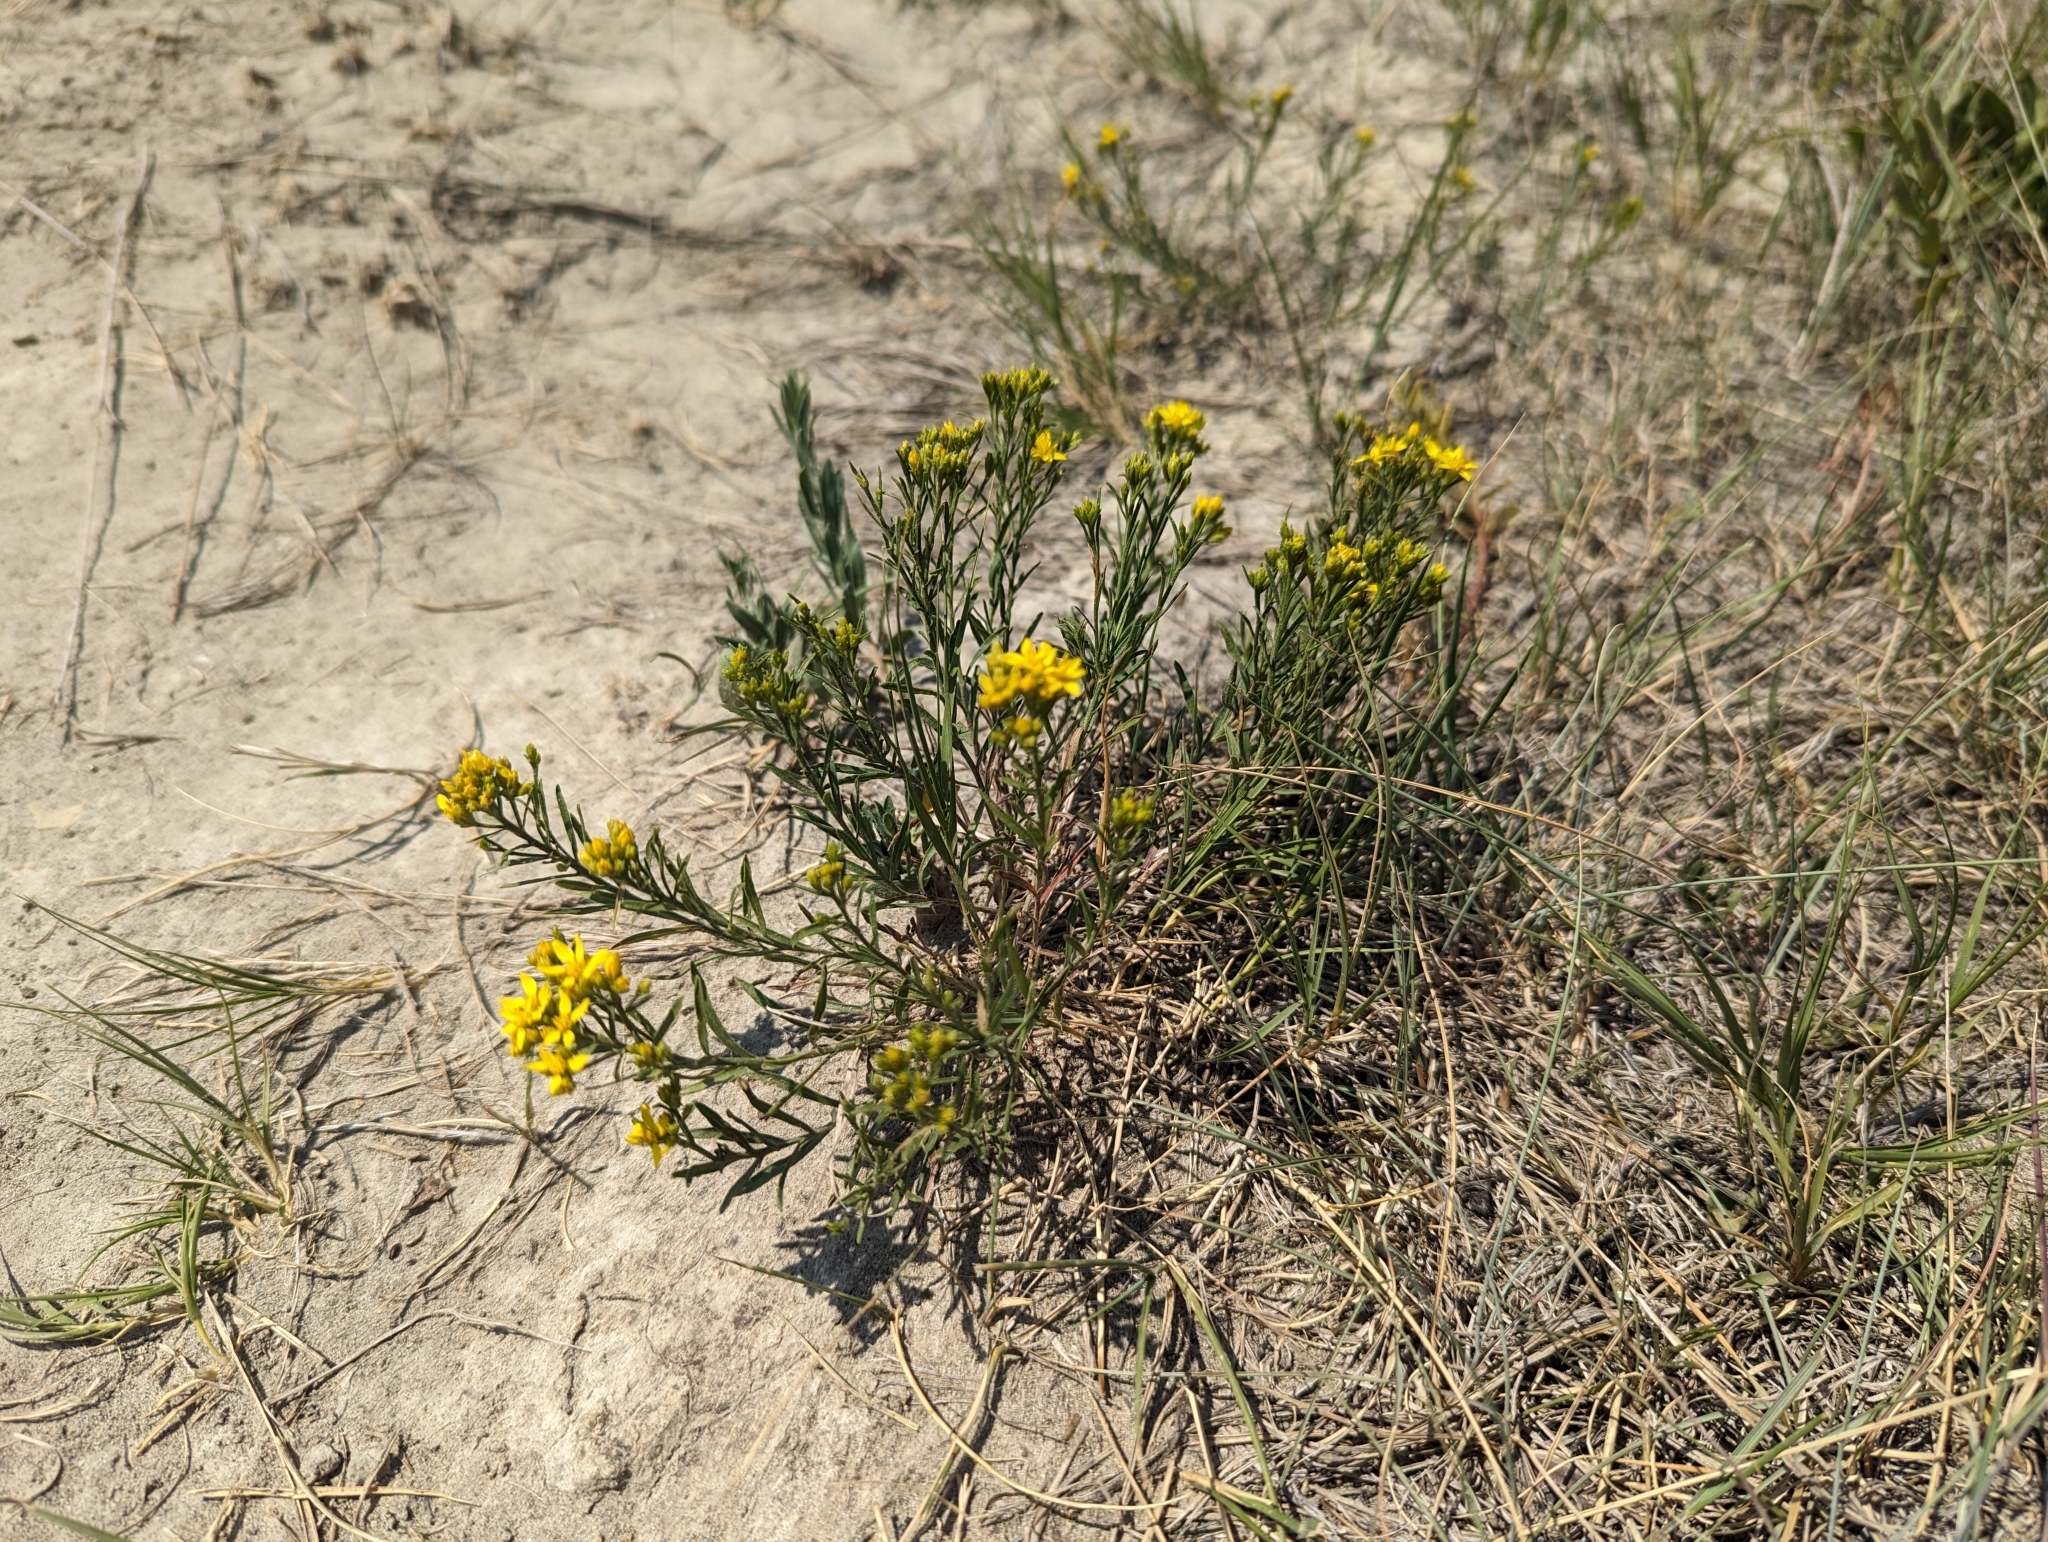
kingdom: Plantae
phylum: Tracheophyta
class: Magnoliopsida
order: Asterales
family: Asteraceae
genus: Gutierrezia
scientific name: Gutierrezia sarothrae
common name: Broom snakeweed
